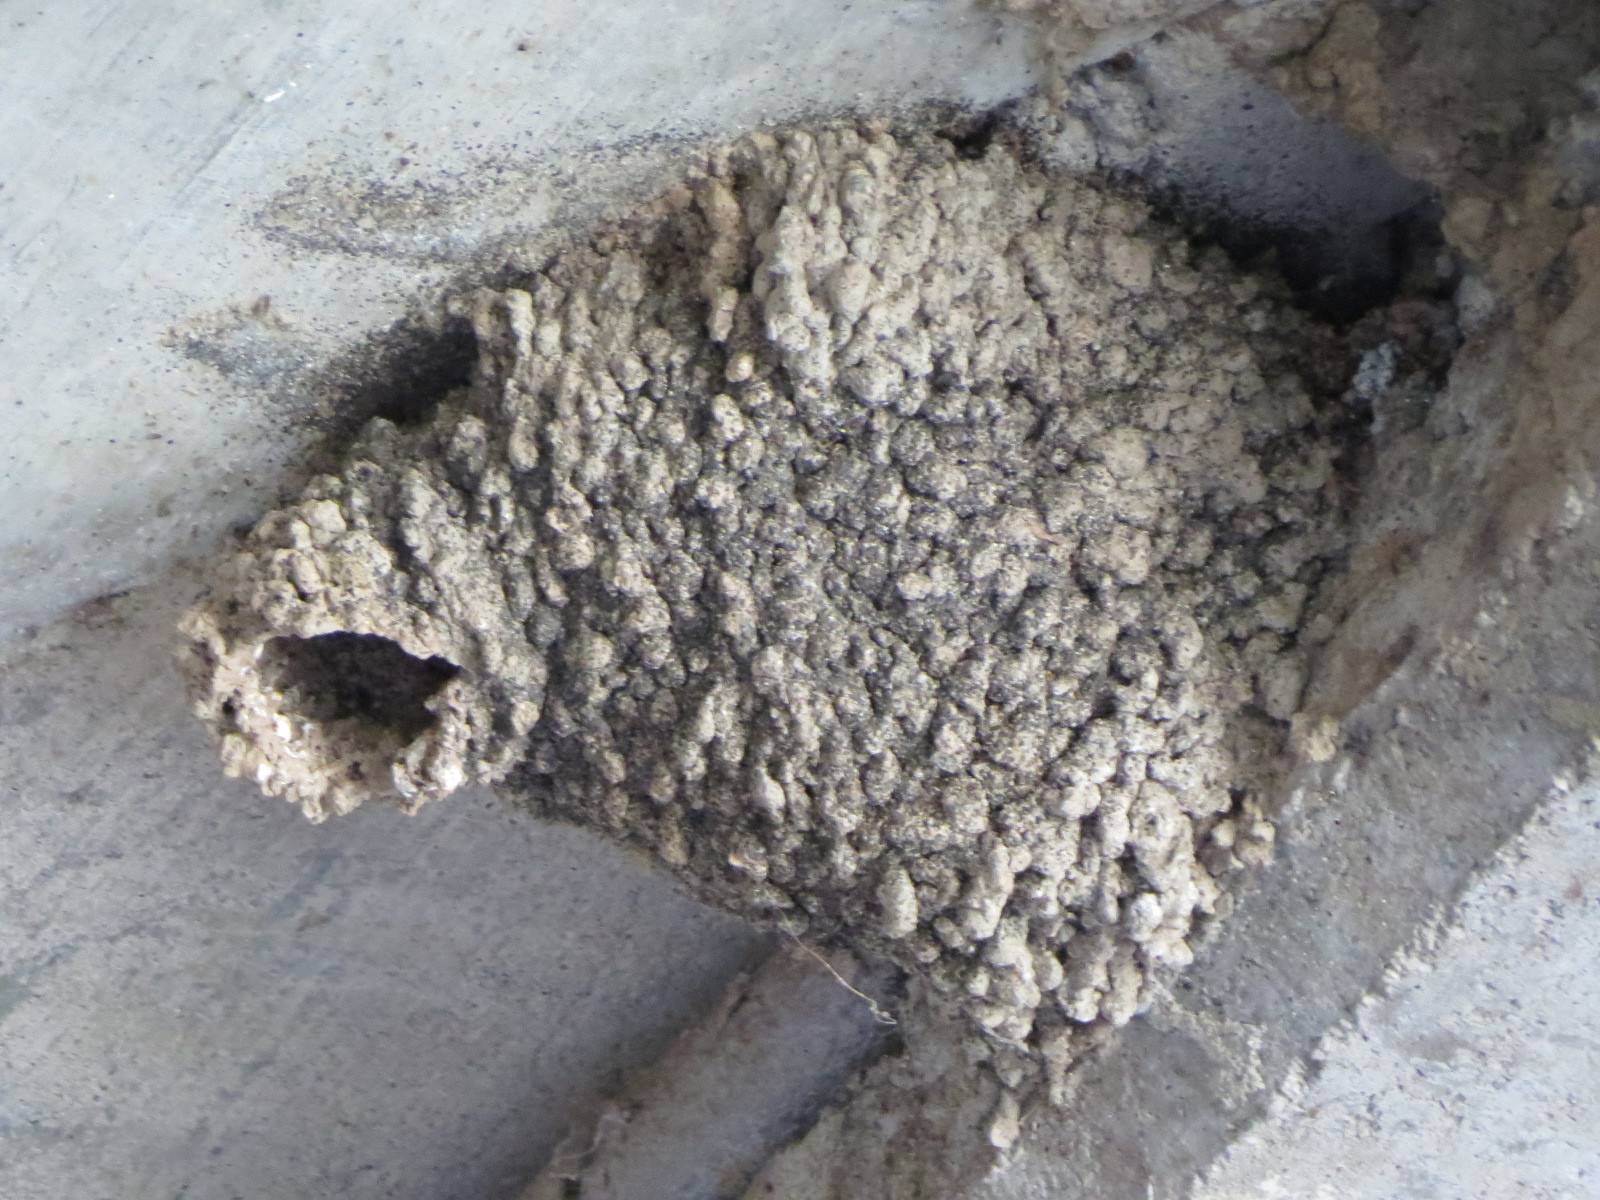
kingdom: Animalia
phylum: Chordata
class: Aves
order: Passeriformes
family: Hirundinidae
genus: Petrochelidon
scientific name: Petrochelidon pyrrhonota
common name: American cliff swallow
